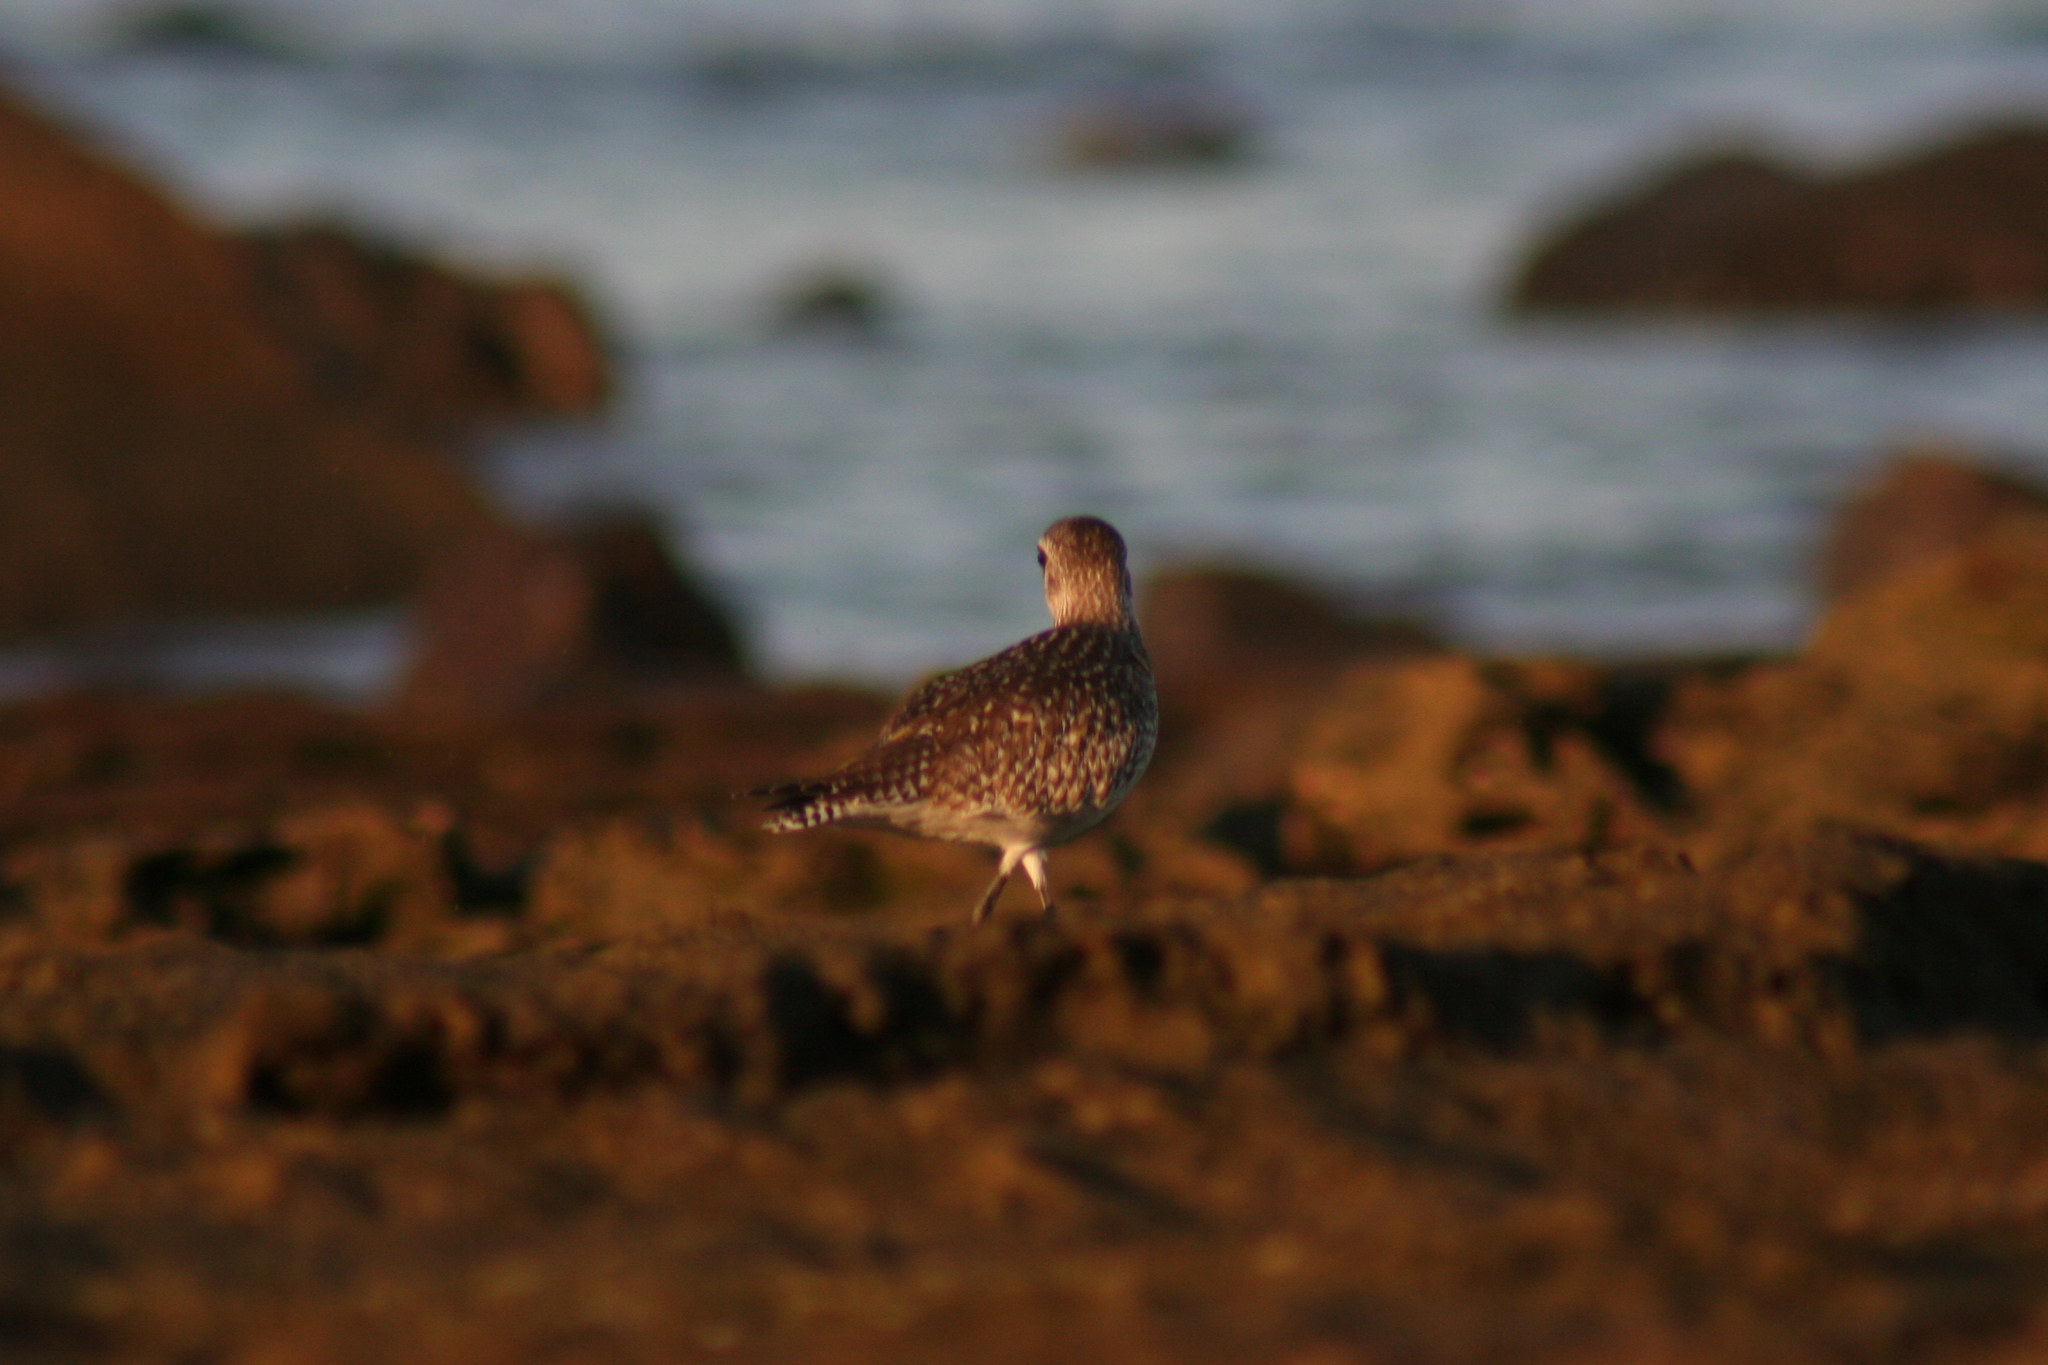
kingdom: Animalia
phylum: Chordata
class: Aves
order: Charadriiformes
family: Charadriidae
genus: Pluvialis
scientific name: Pluvialis squatarola
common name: Grey plover
